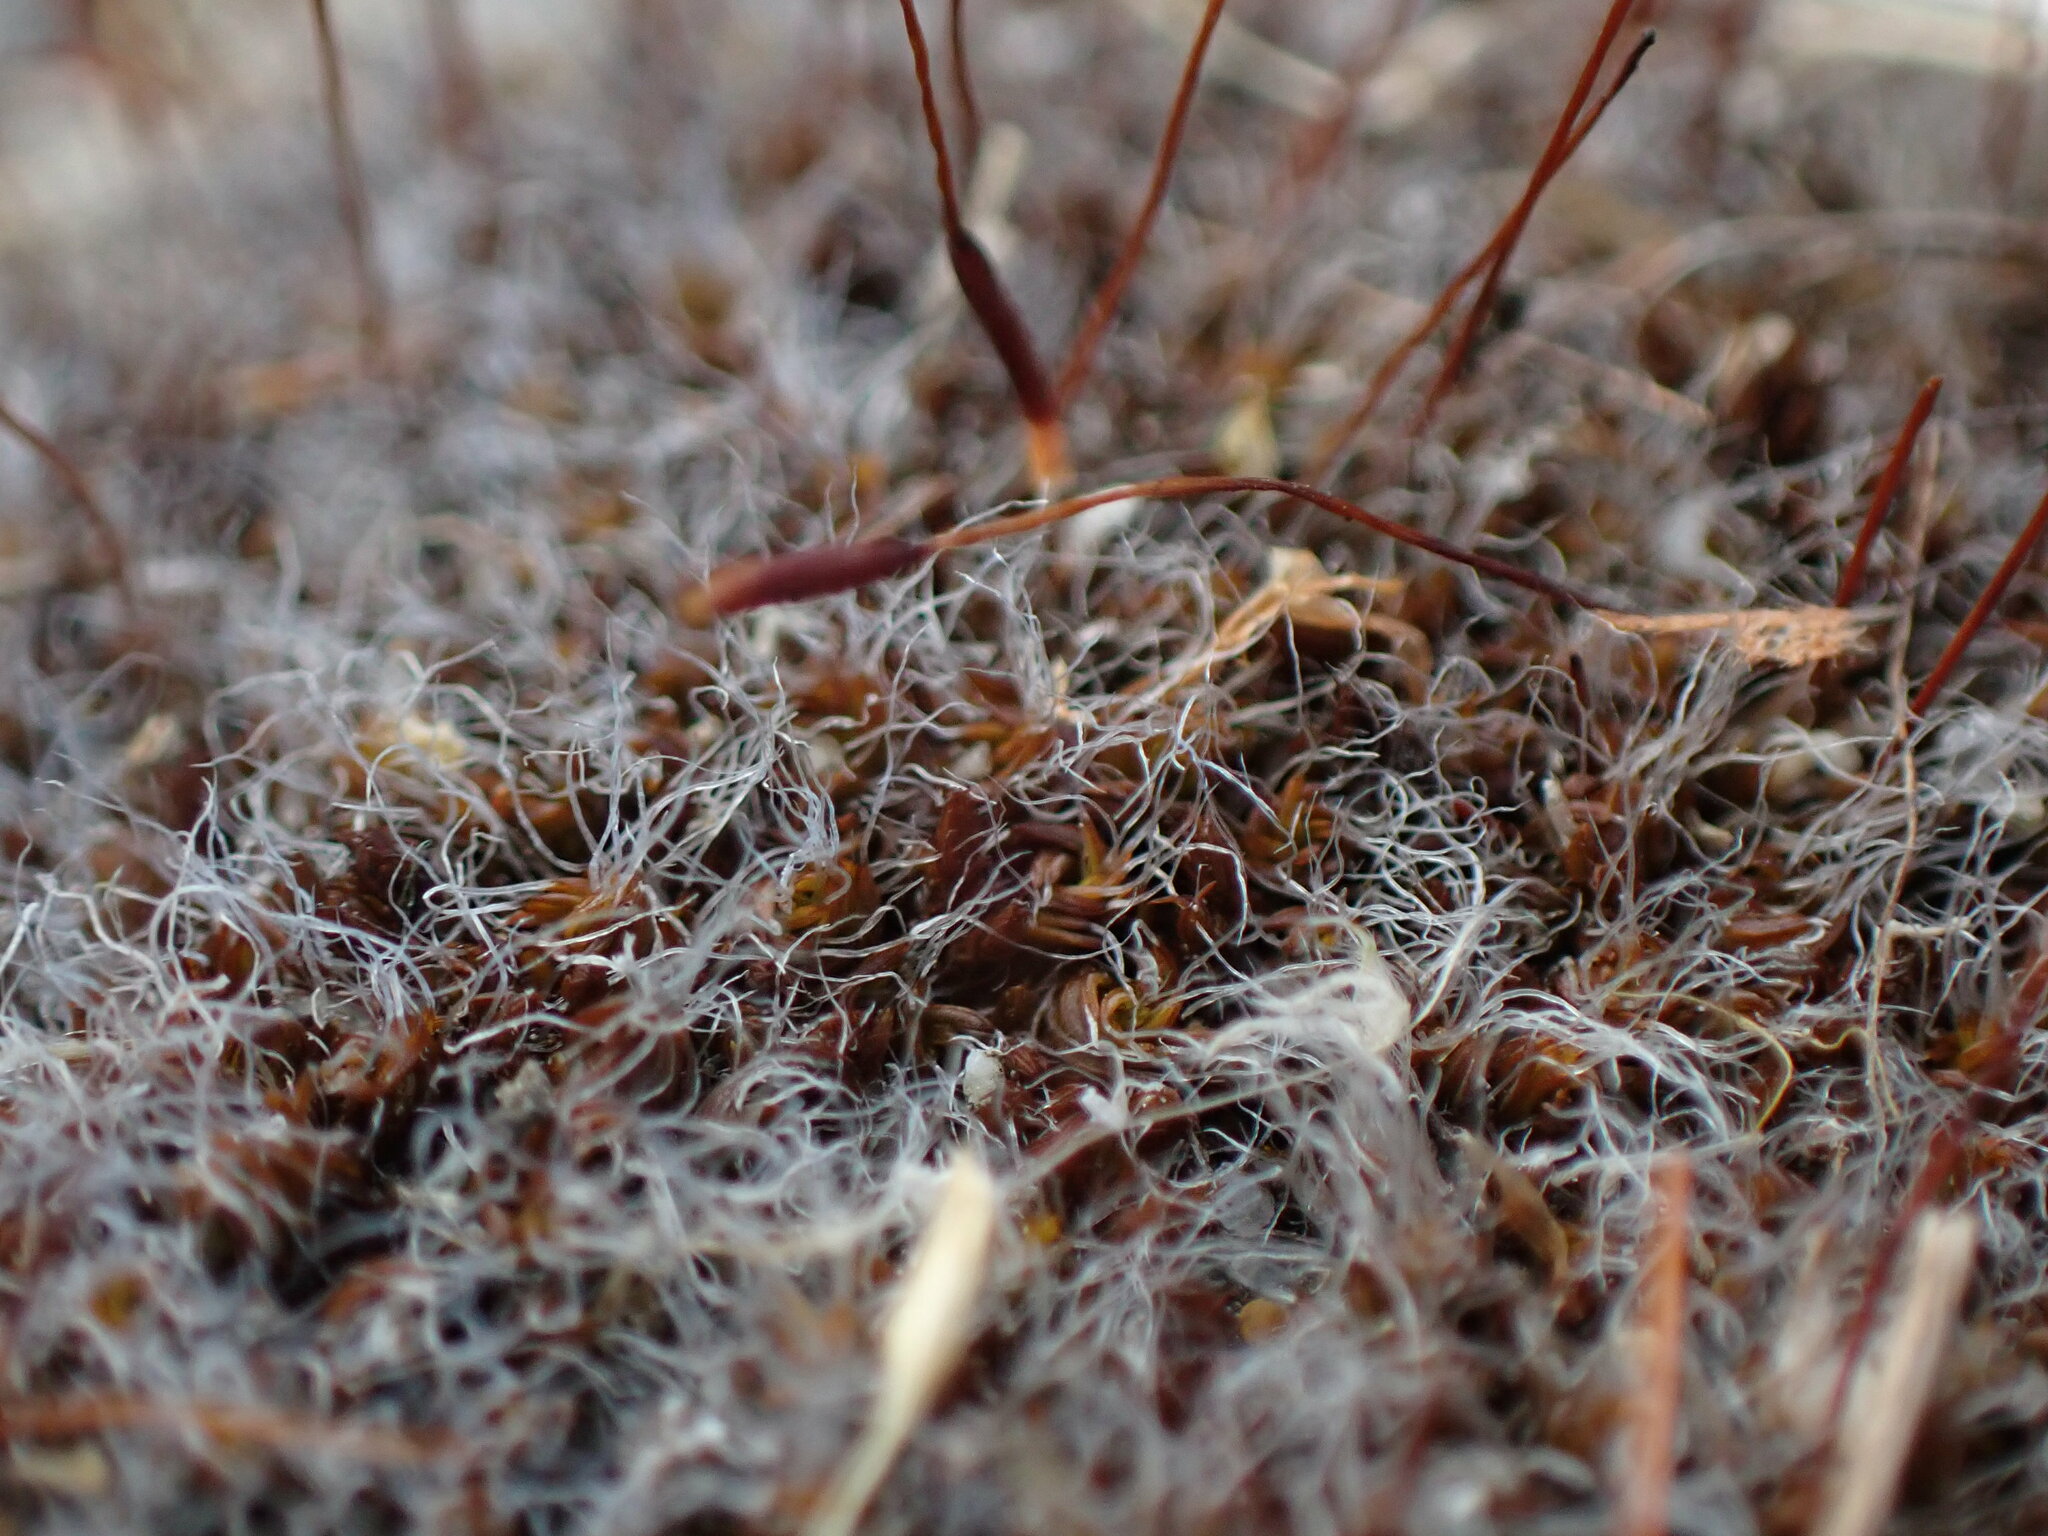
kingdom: Plantae
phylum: Bryophyta
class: Bryopsida
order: Pottiales
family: Pottiaceae
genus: Tortula
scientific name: Tortula muralis
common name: Wall screw-moss
